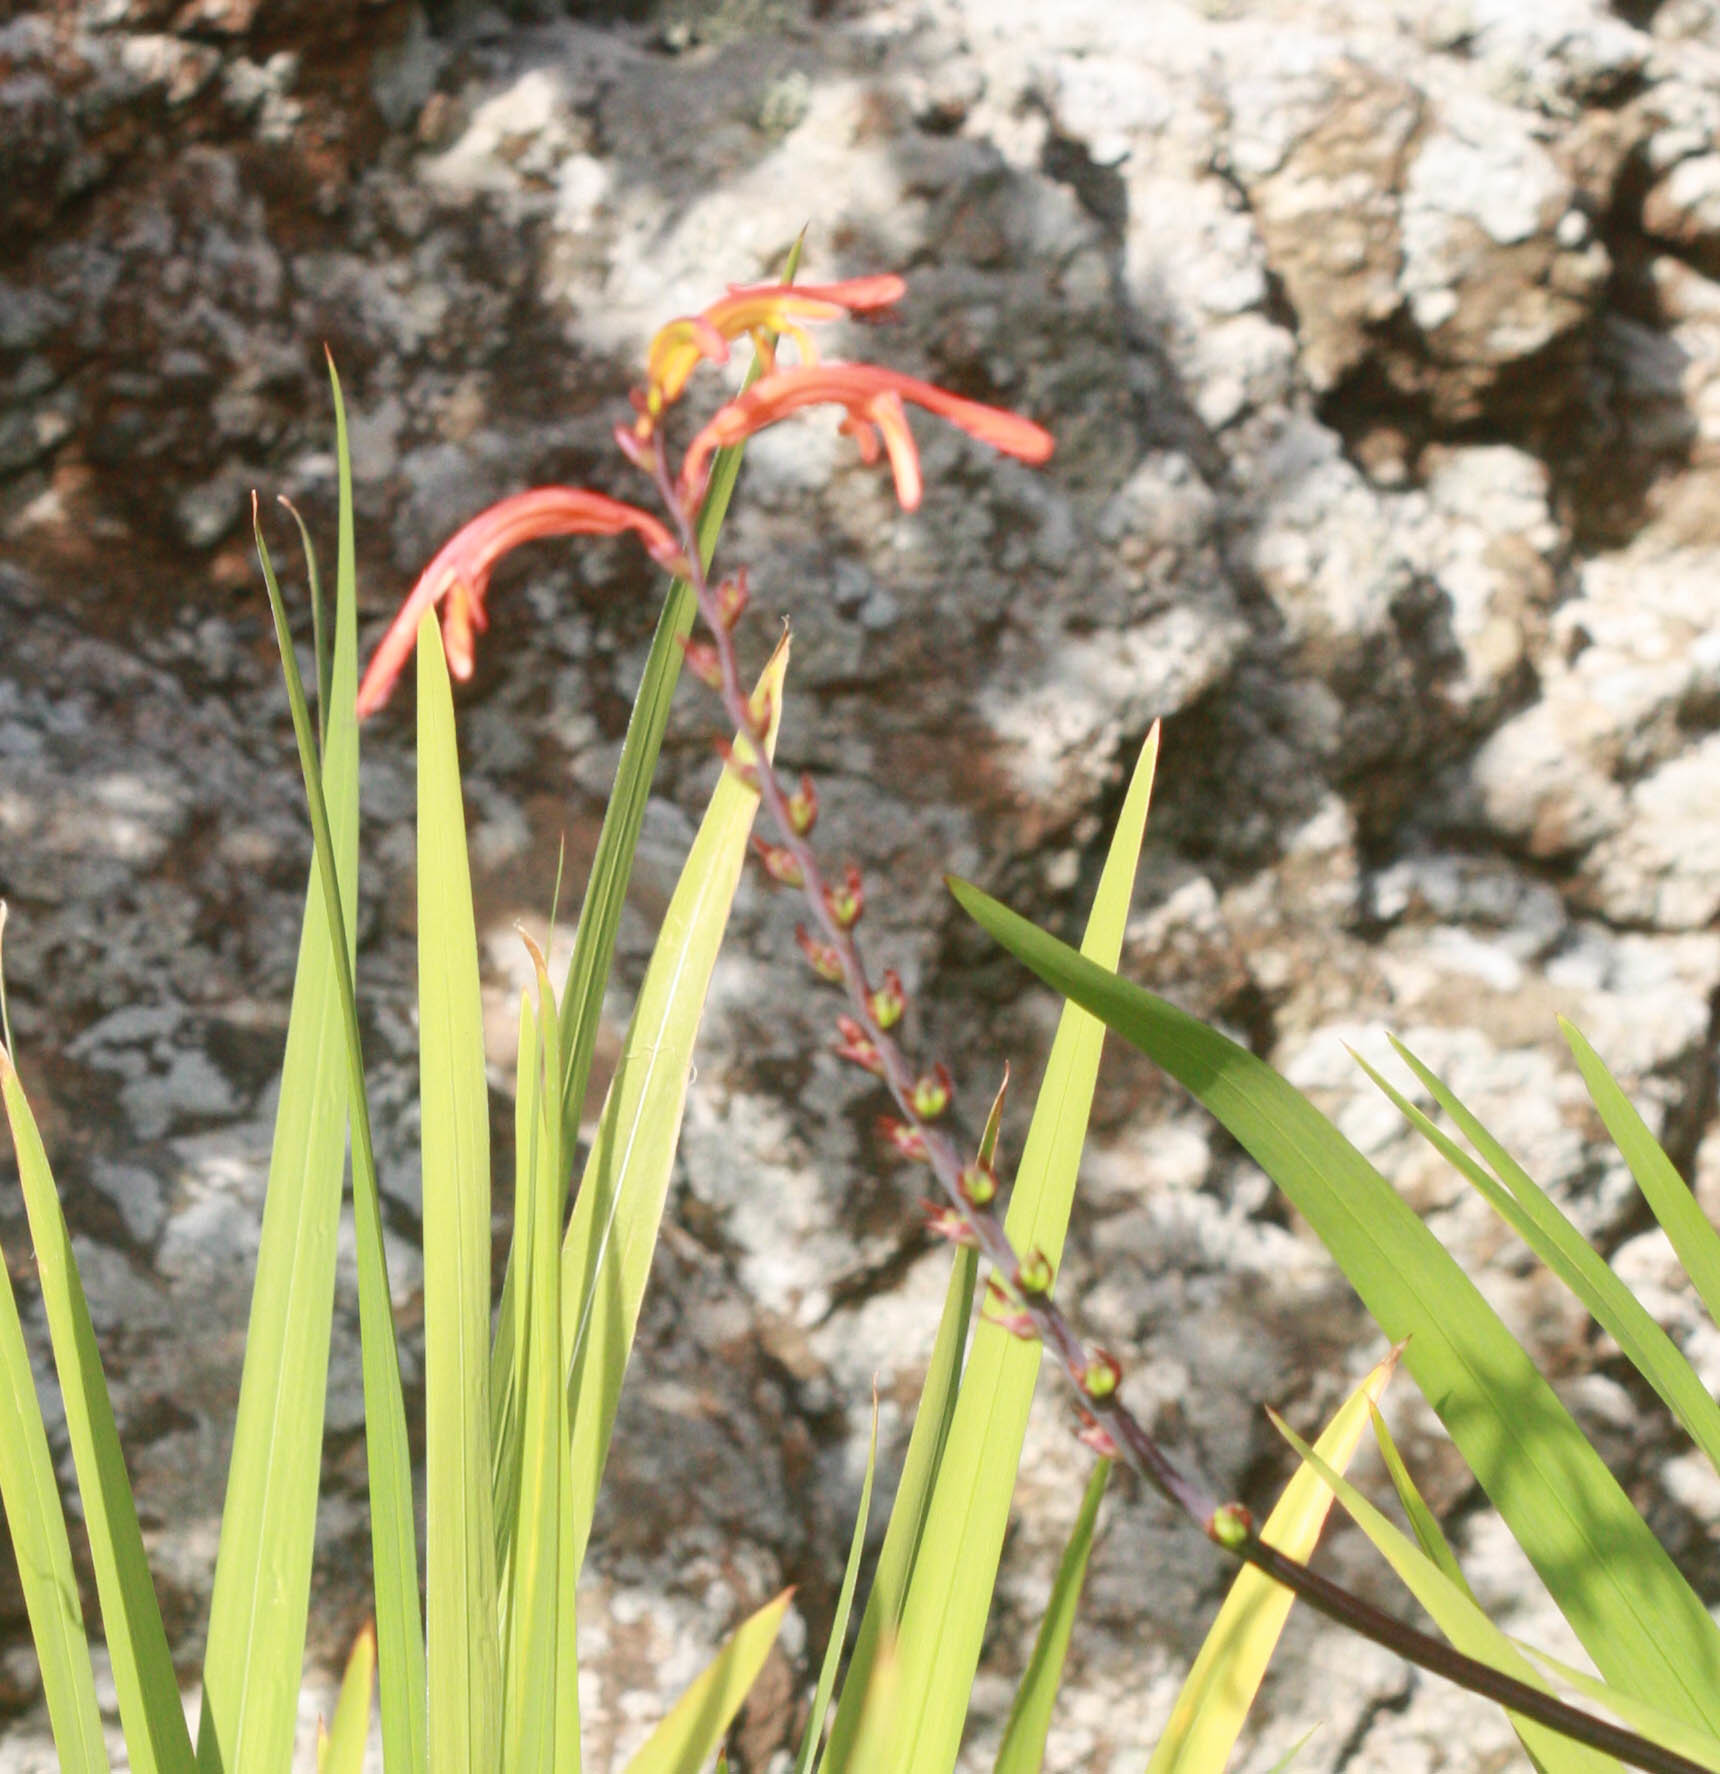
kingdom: Plantae
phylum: Tracheophyta
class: Liliopsida
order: Asparagales
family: Iridaceae
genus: Chasmanthe
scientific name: Chasmanthe floribunda
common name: African cornflag
